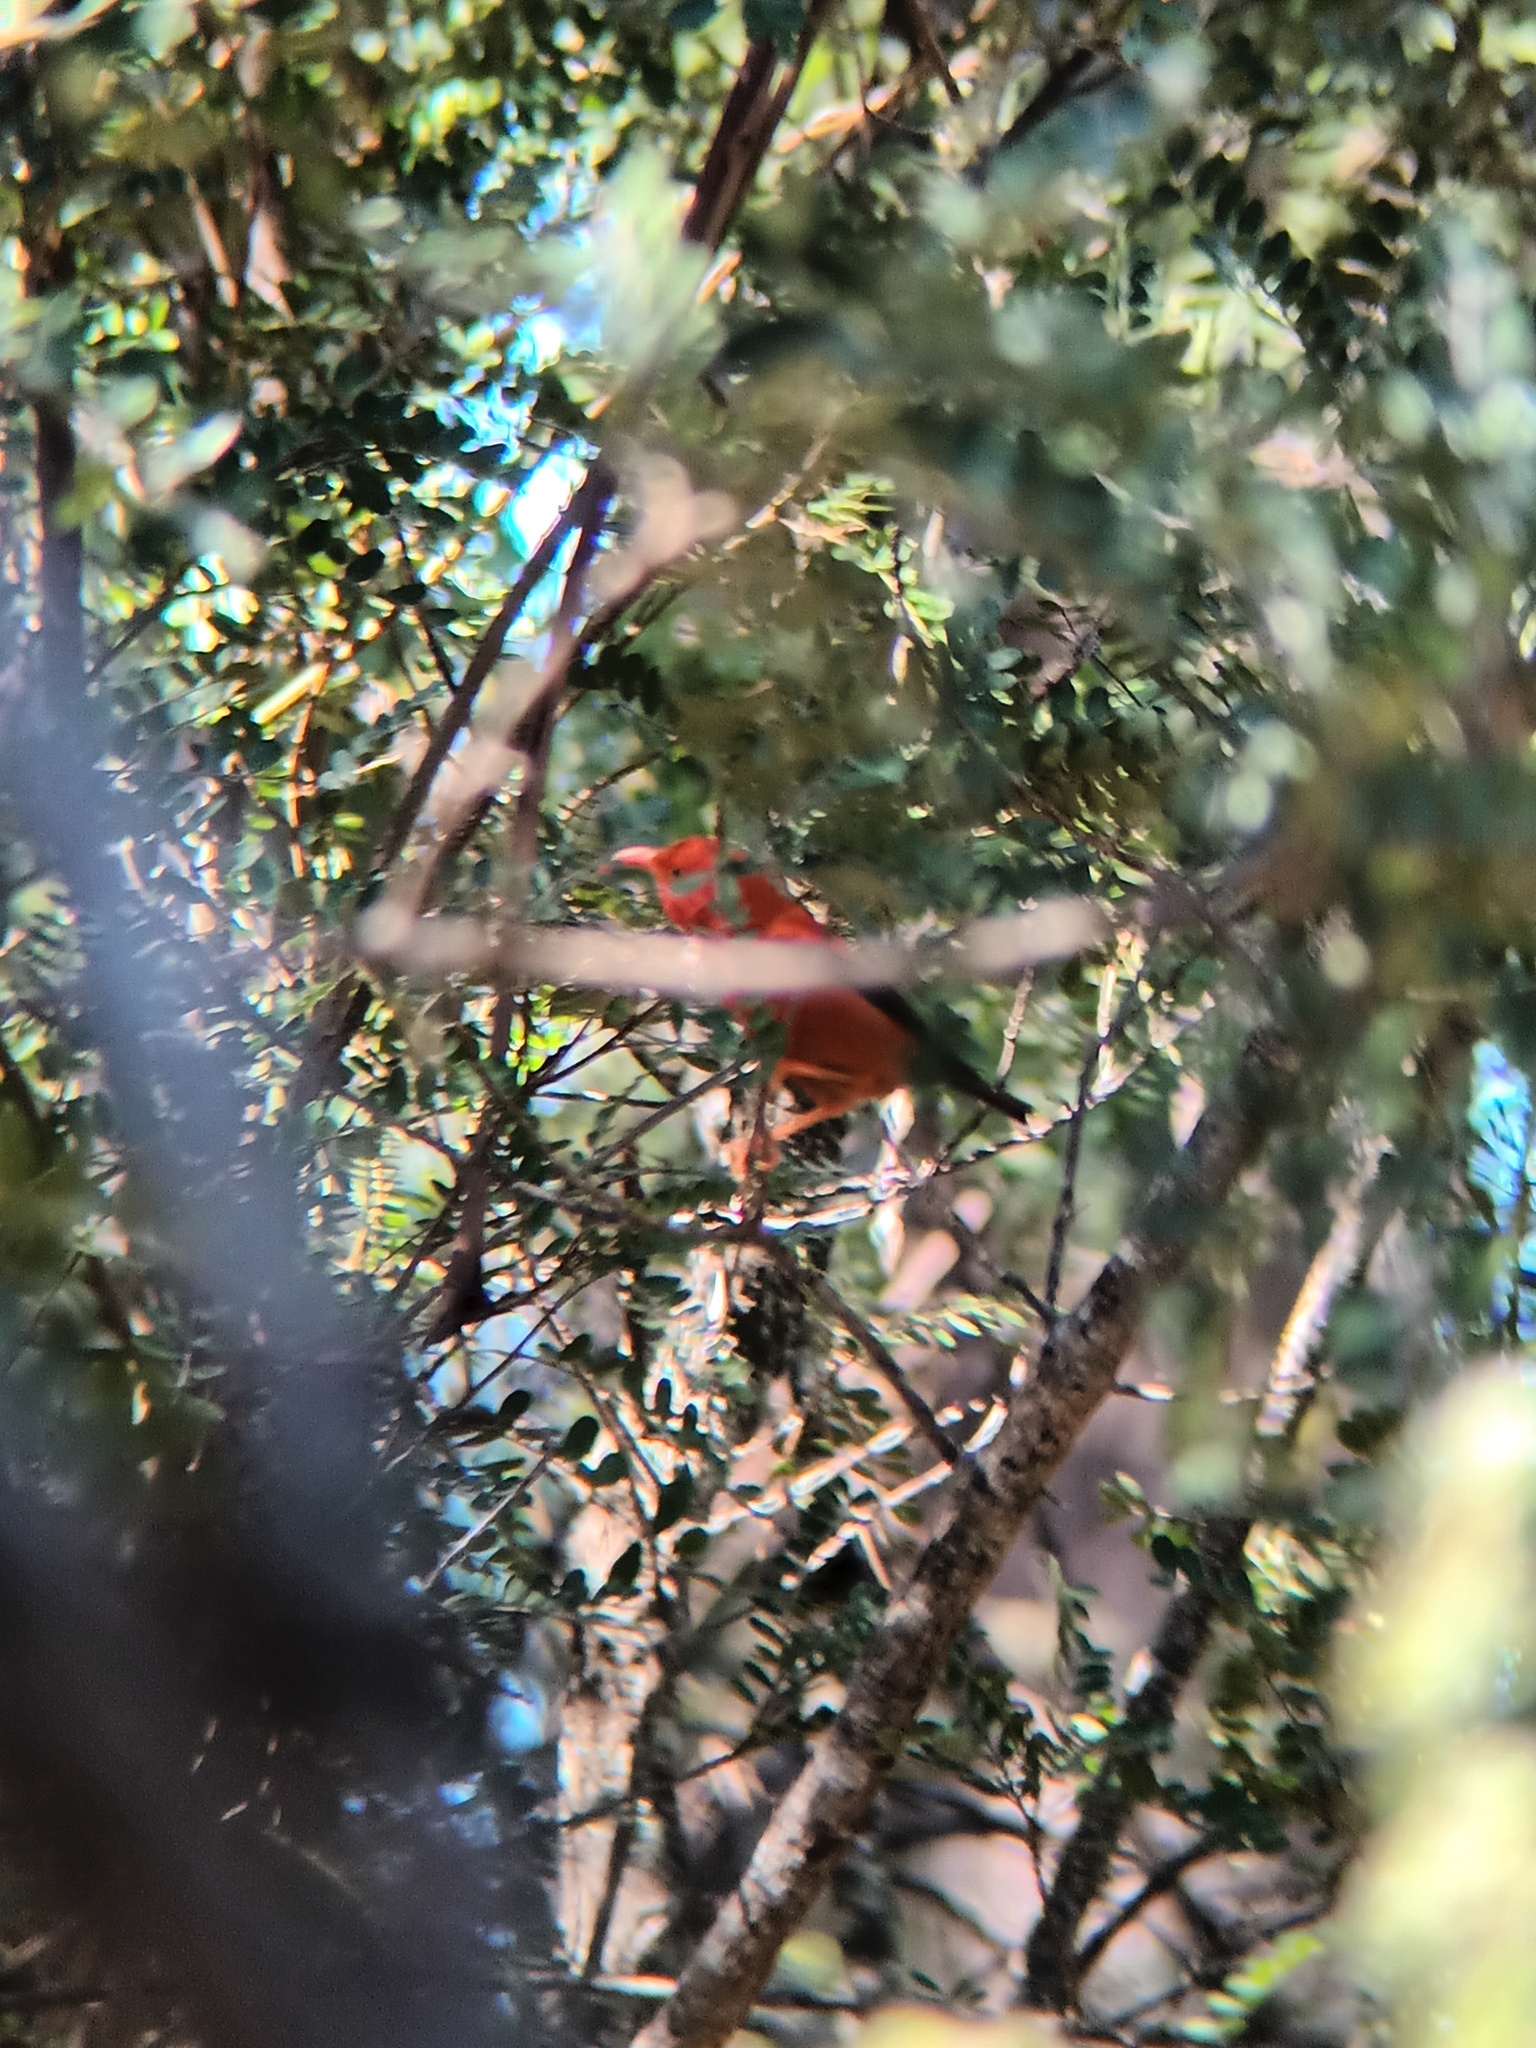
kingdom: Animalia
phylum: Chordata
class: Aves
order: Passeriformes
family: Fringillidae
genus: Vestiaria
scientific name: Vestiaria coccinea
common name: Iiwi
